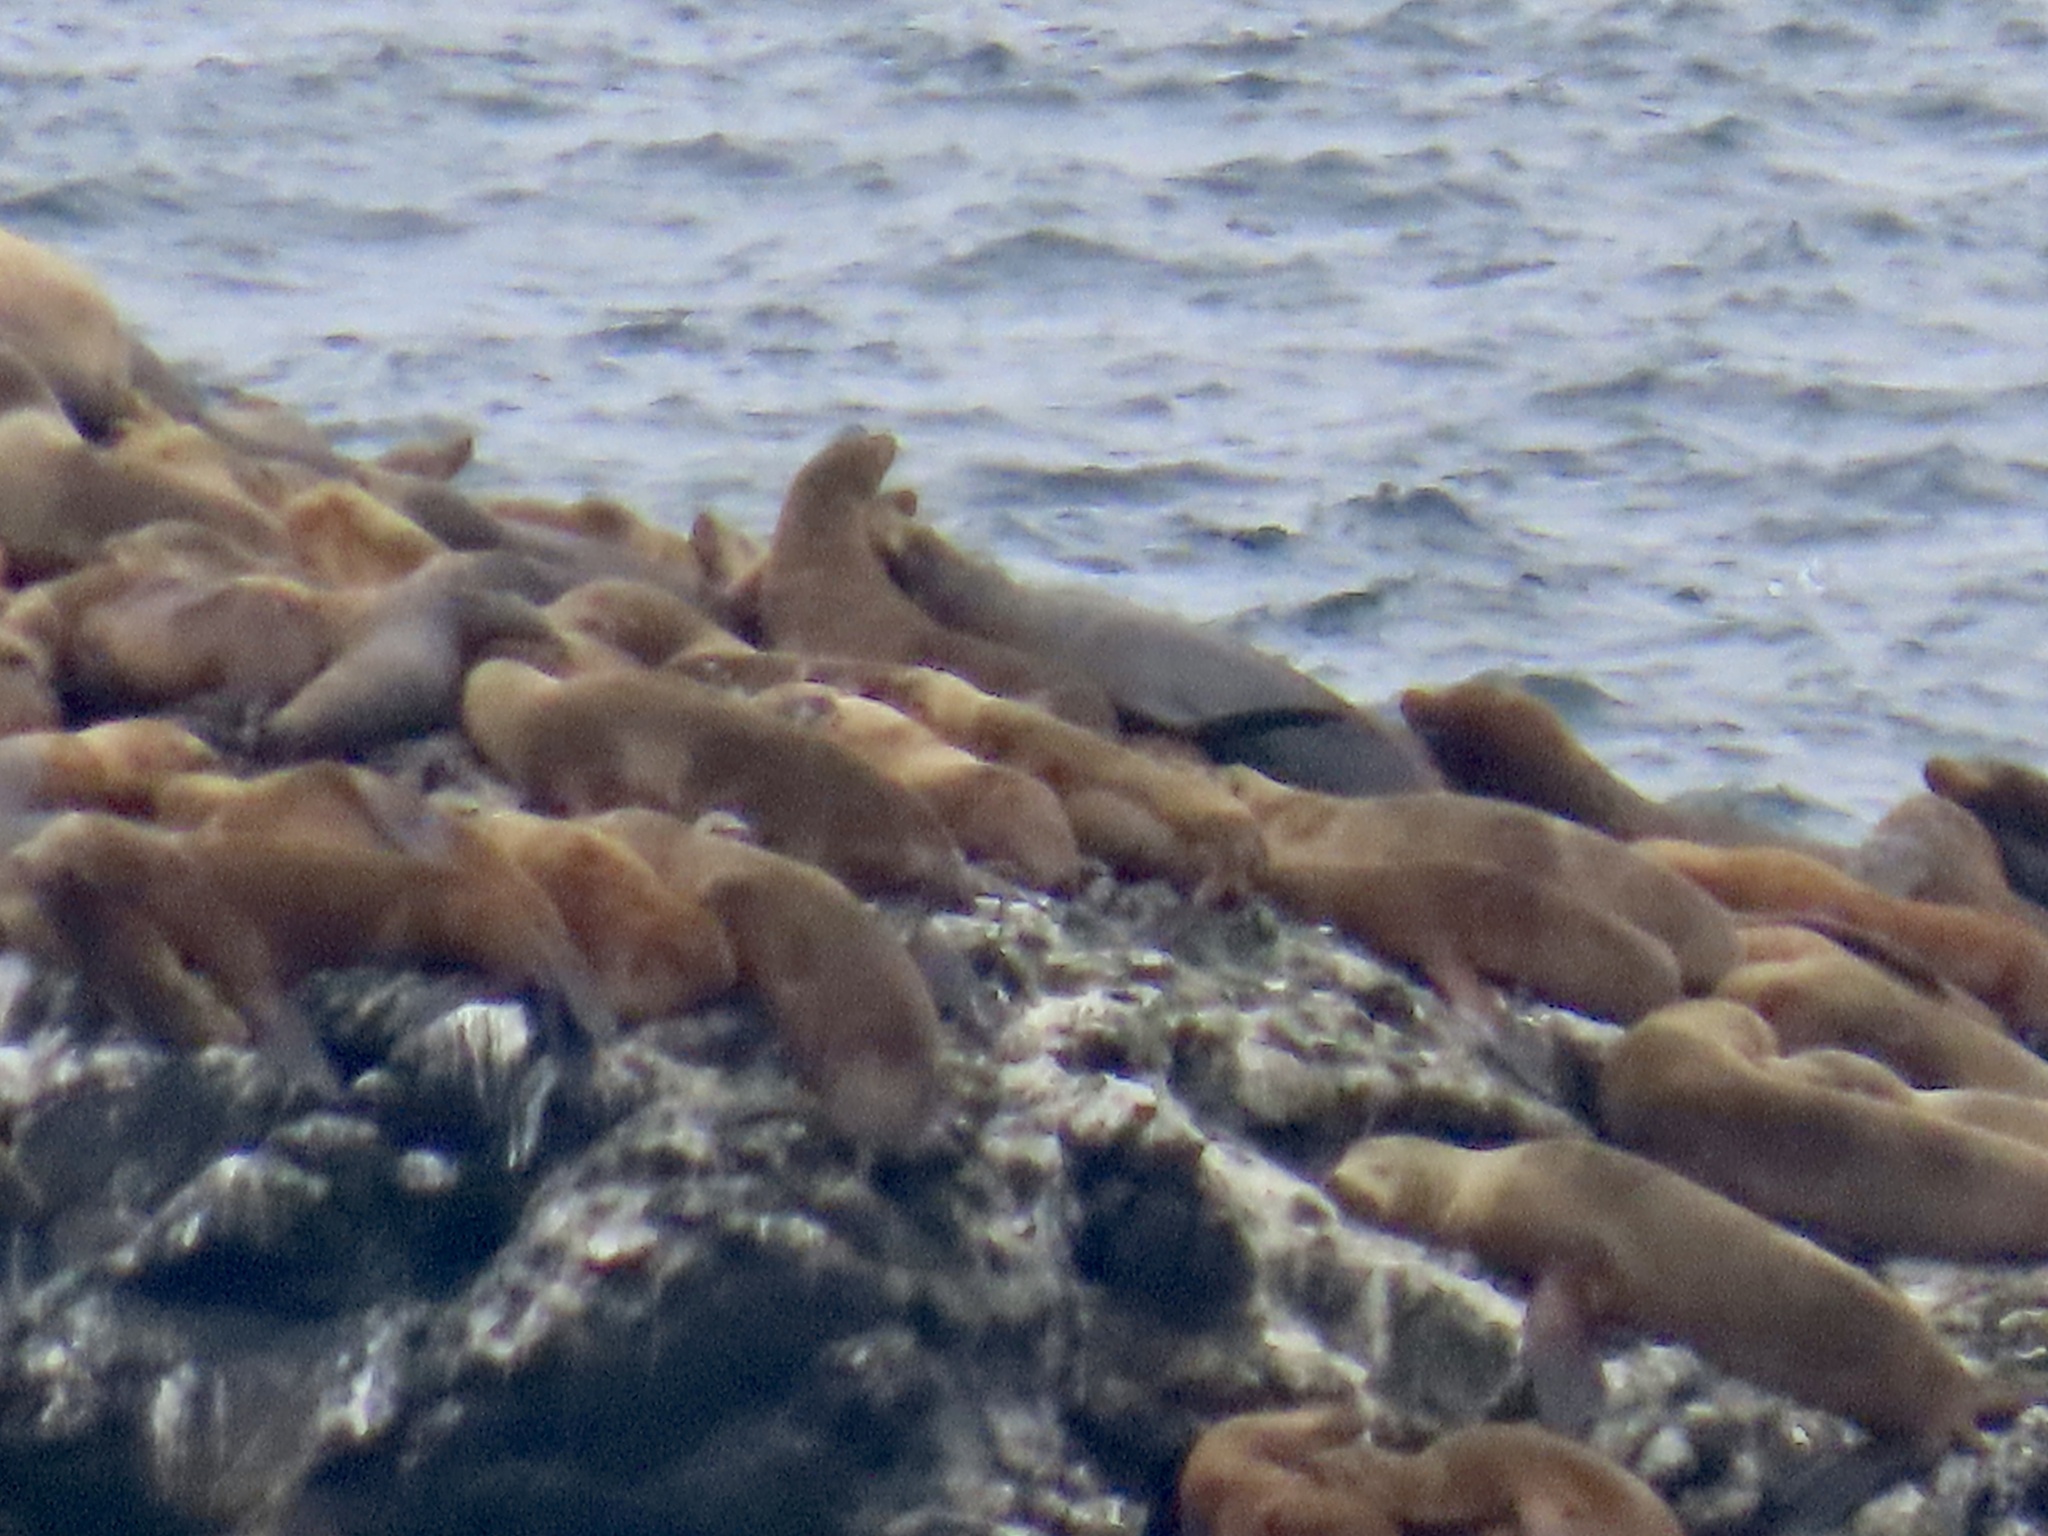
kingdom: Animalia
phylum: Chordata
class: Mammalia
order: Carnivora
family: Otariidae
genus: Zalophus
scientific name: Zalophus californianus
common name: California sea lion
